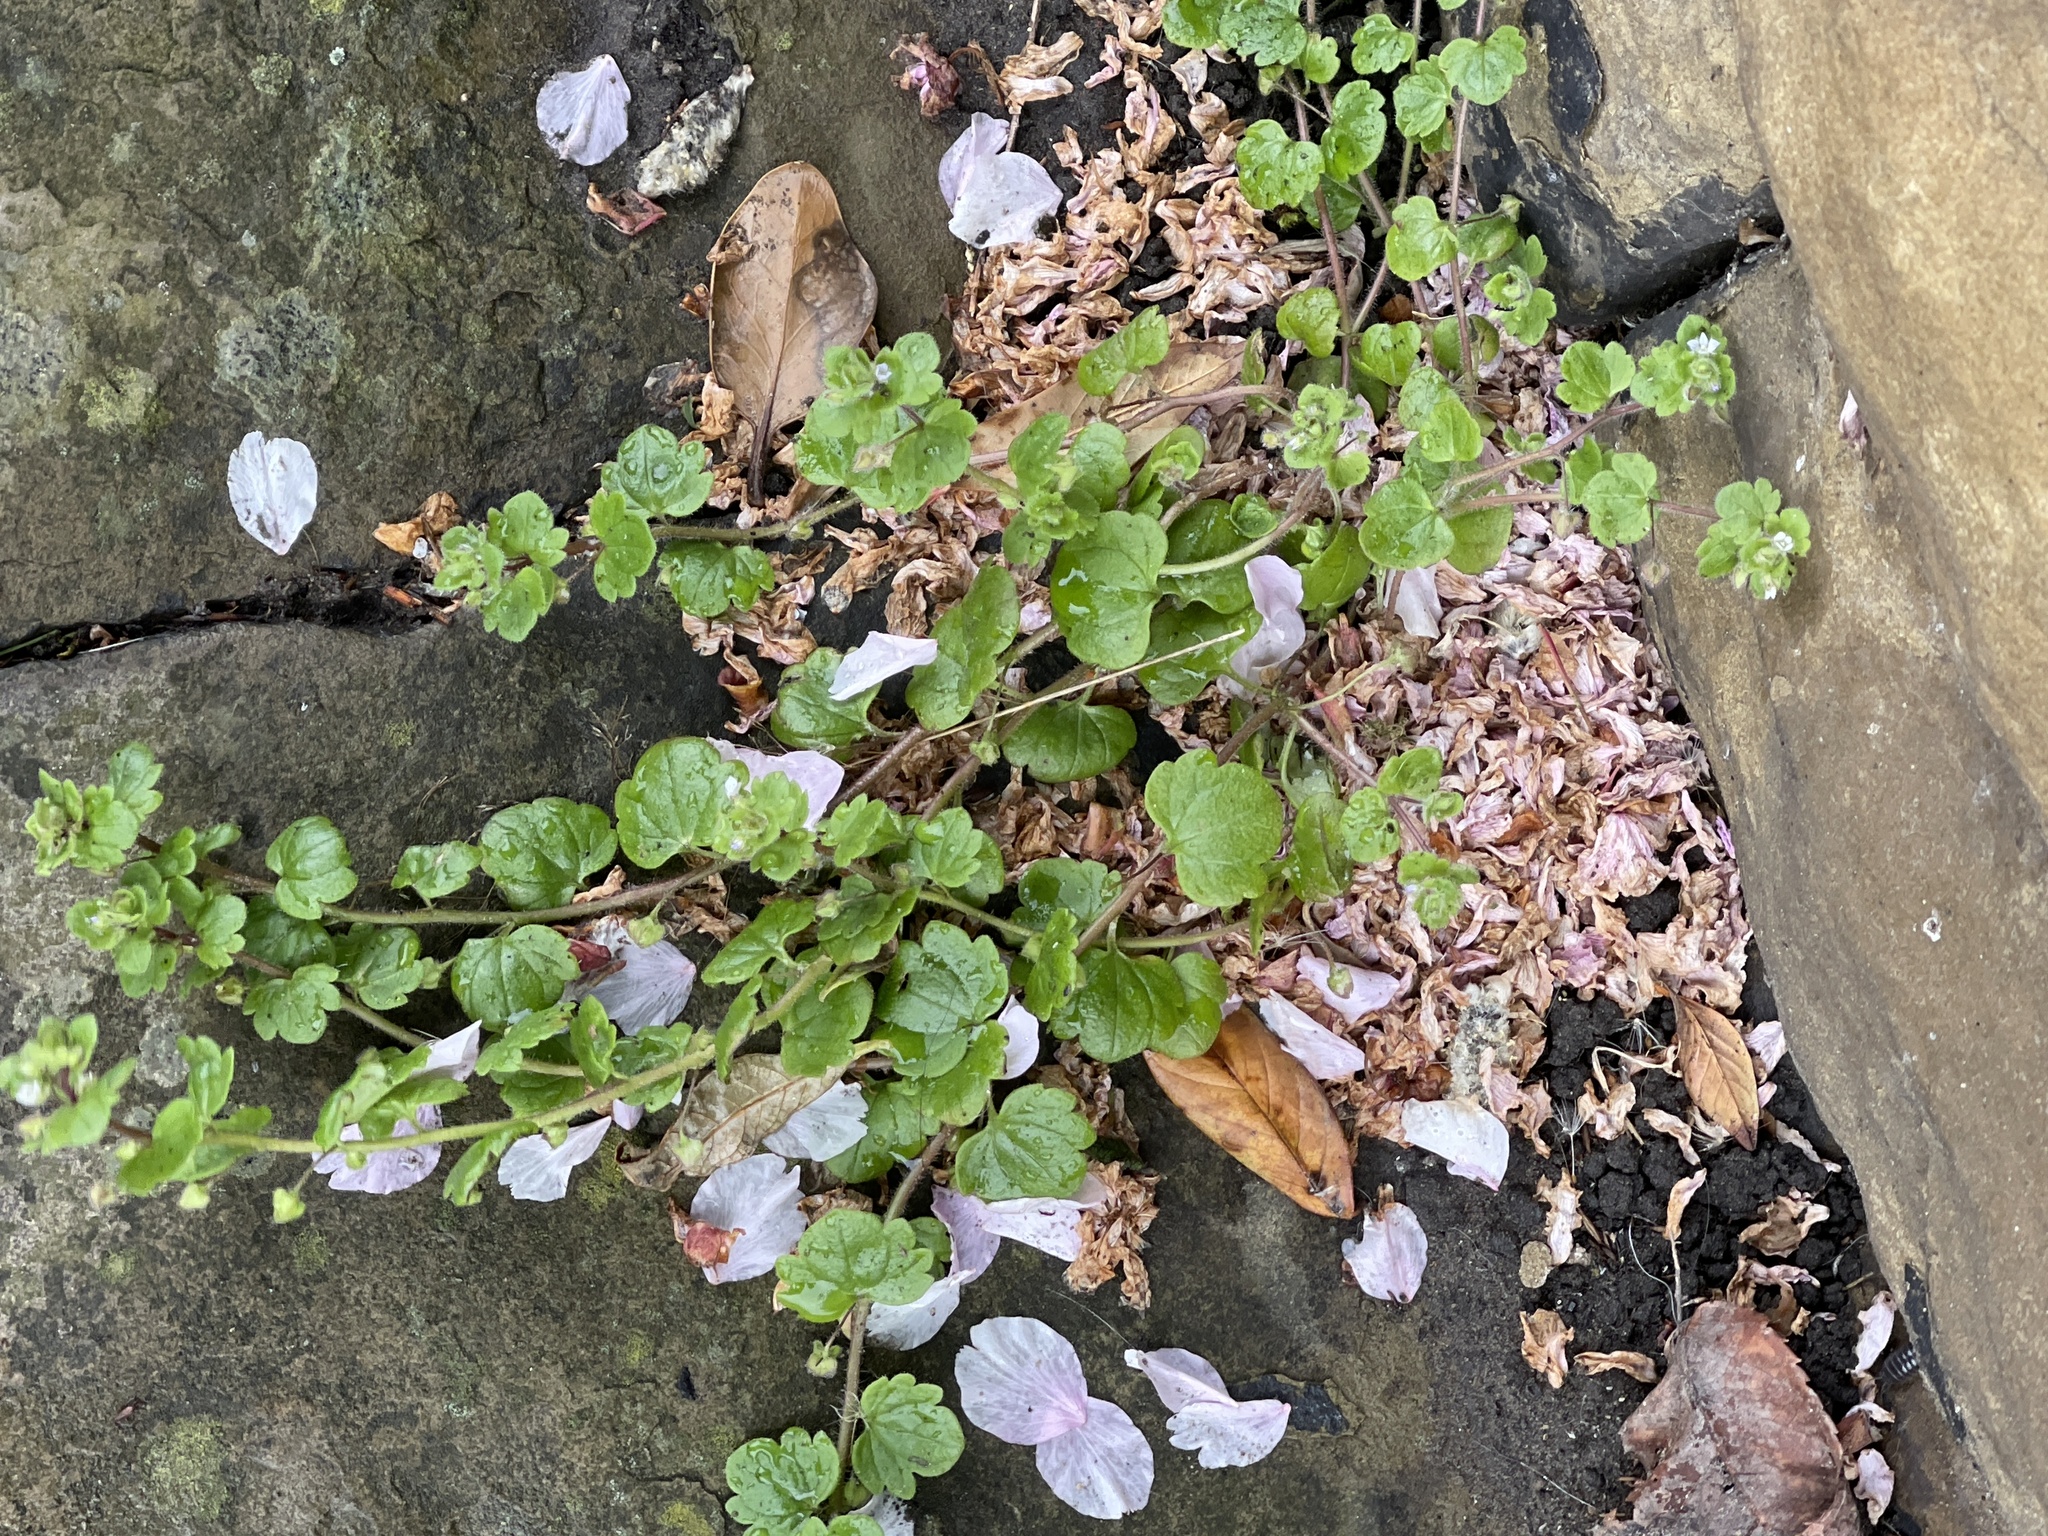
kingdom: Plantae
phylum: Tracheophyta
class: Magnoliopsida
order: Lamiales
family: Plantaginaceae
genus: Veronica
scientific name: Veronica sublobata
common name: False ivy-leaved speedwell
